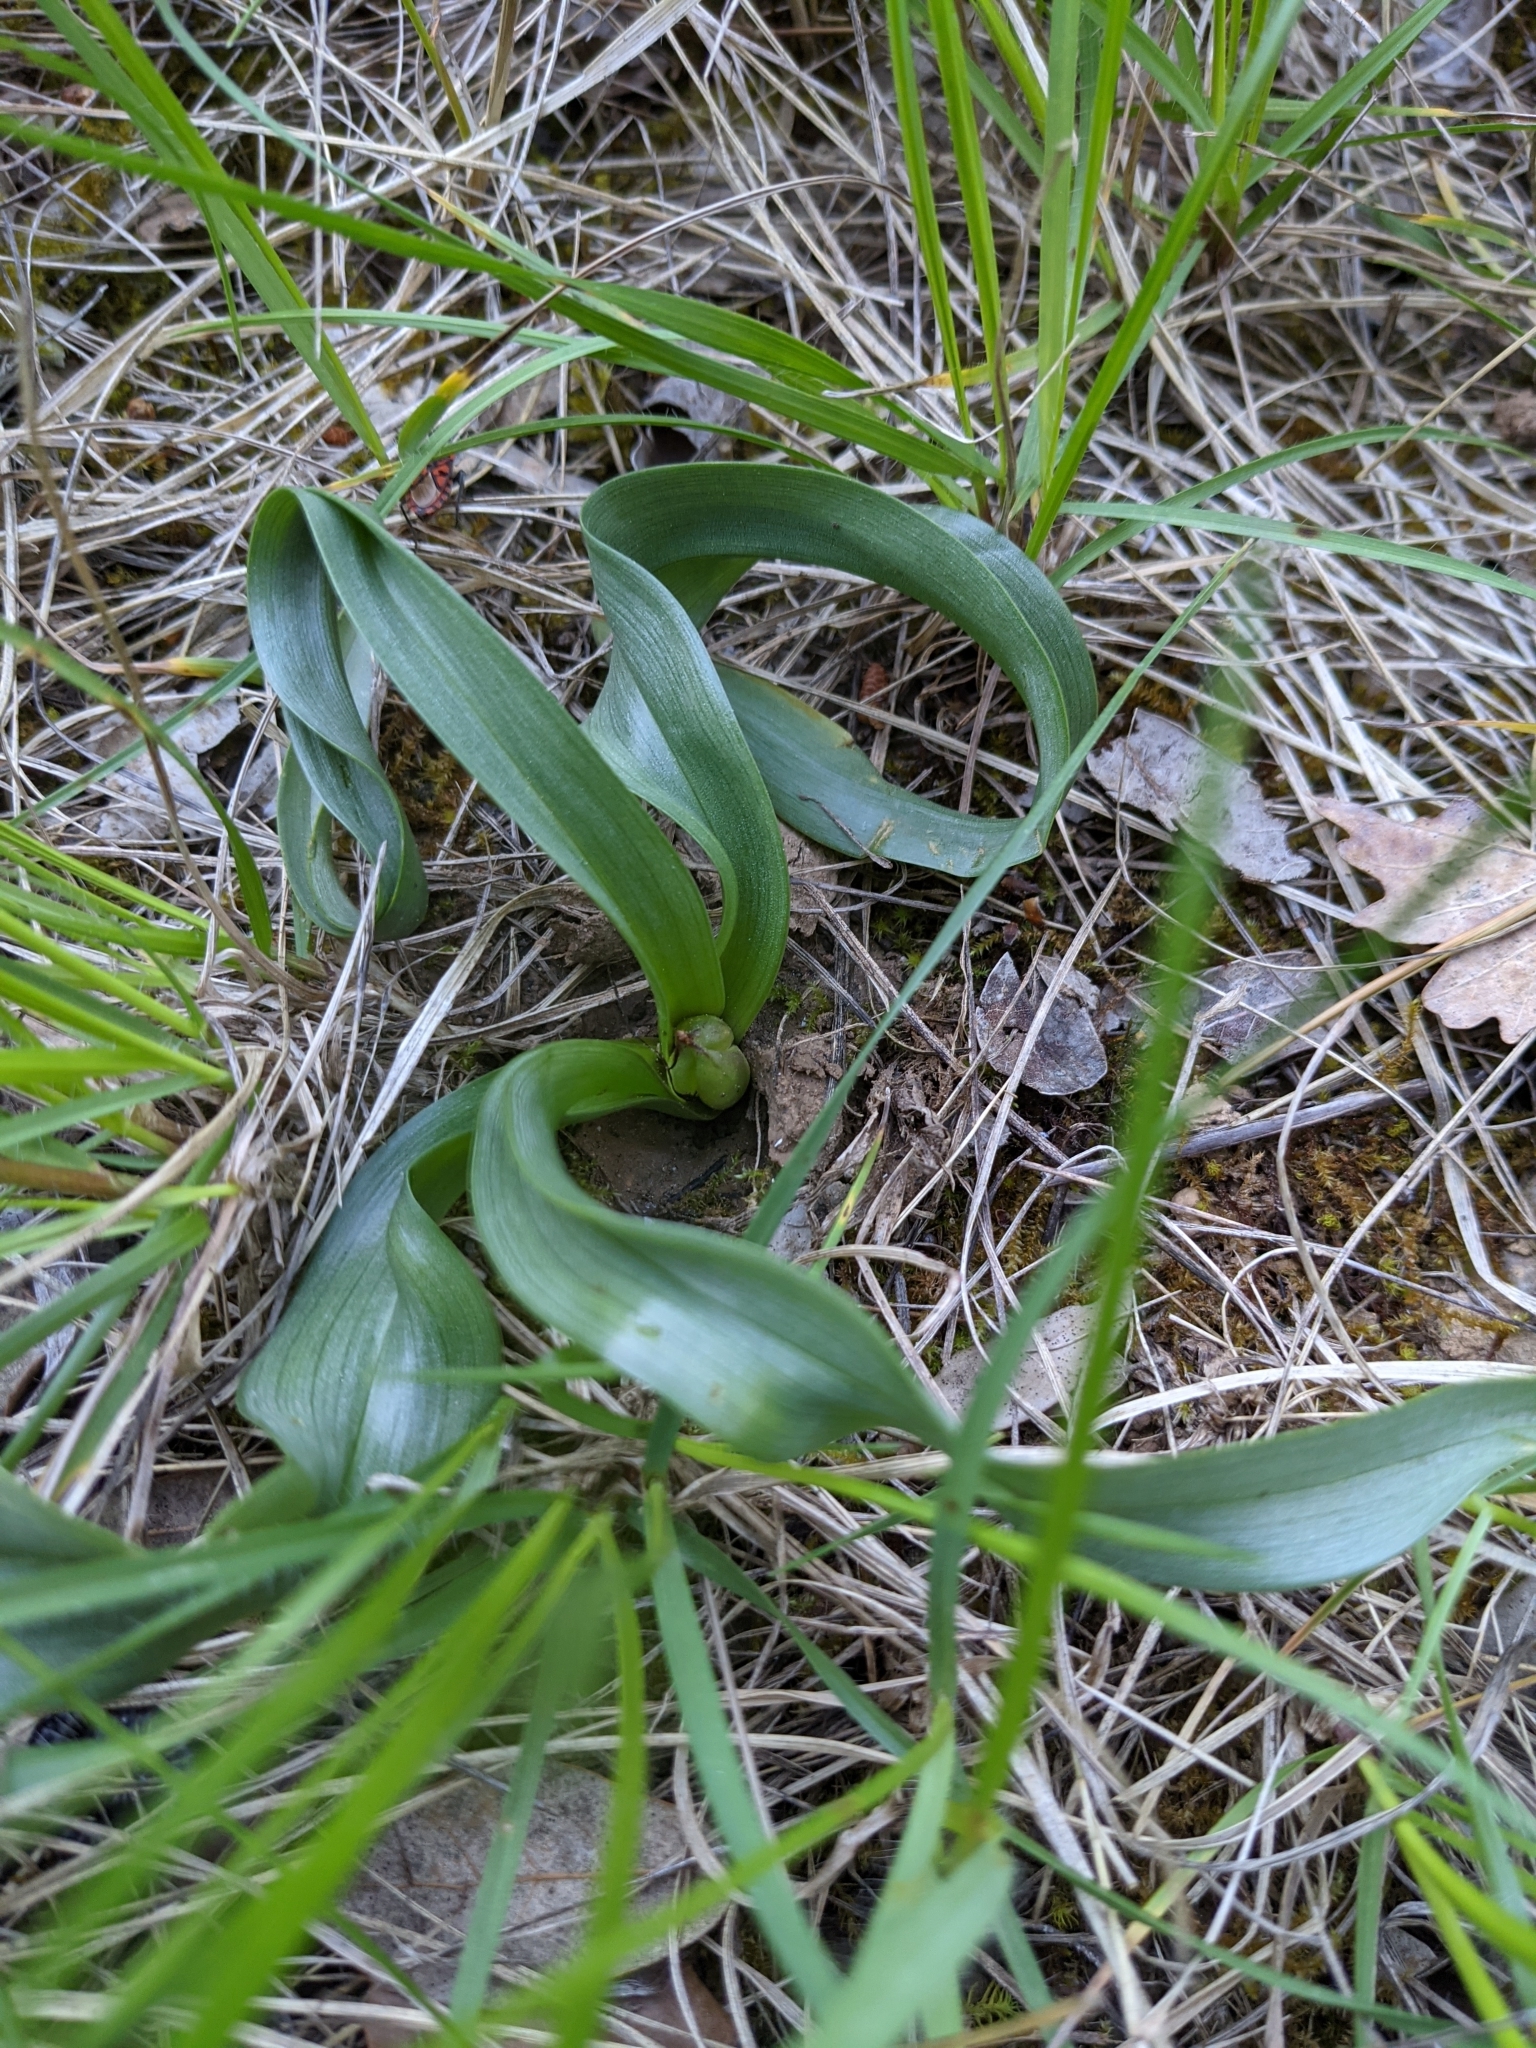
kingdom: Plantae
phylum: Tracheophyta
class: Liliopsida
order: Liliales
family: Colchicaceae
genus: Colchicum
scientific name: Colchicum longifolium
